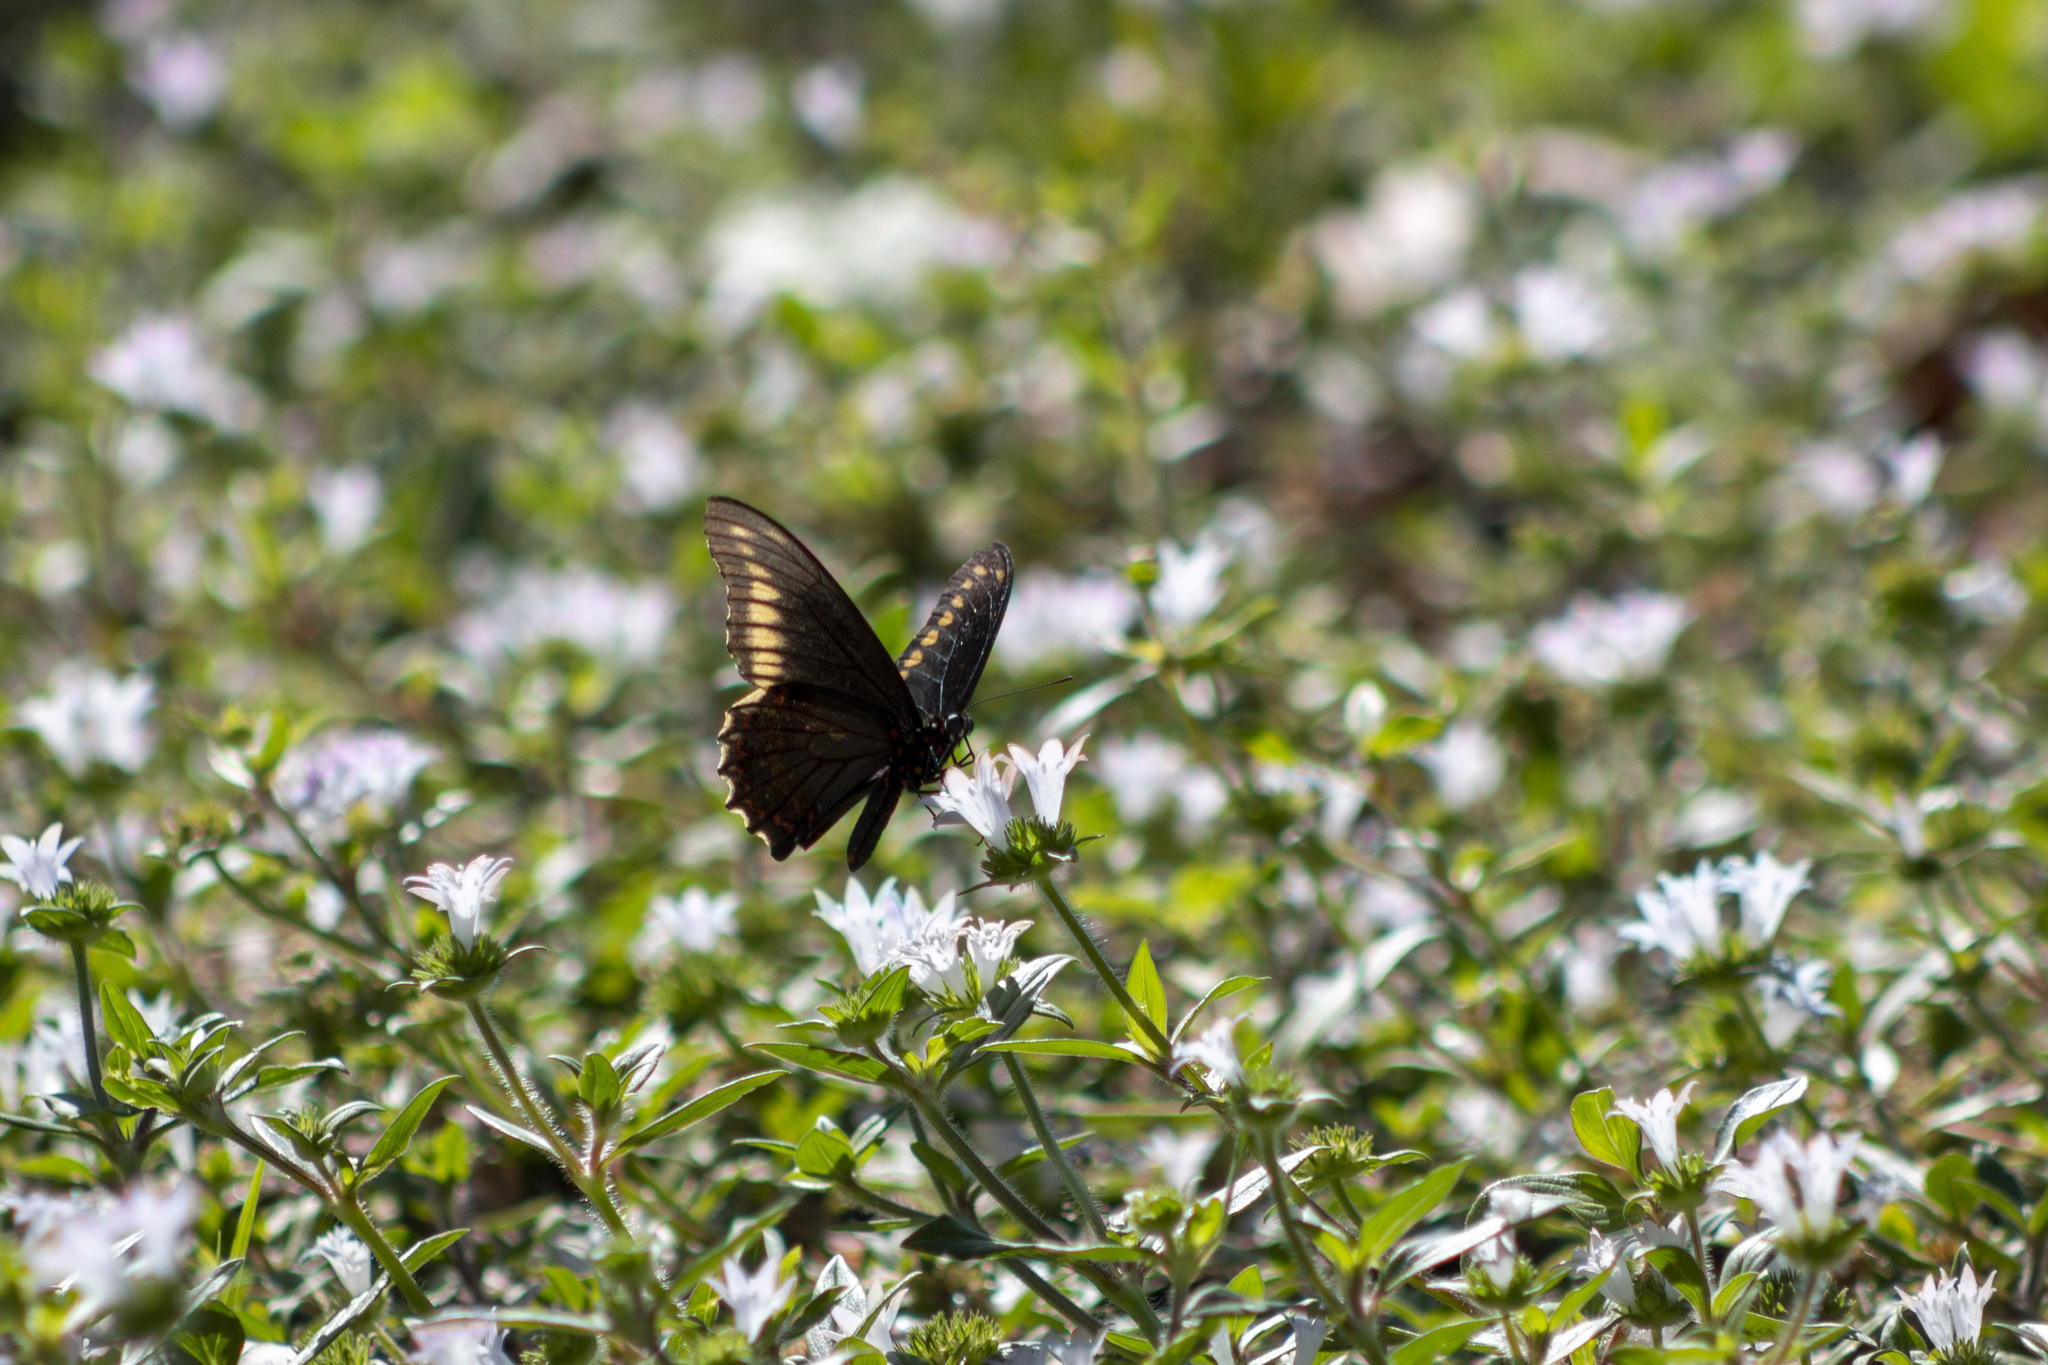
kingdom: Animalia
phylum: Arthropoda
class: Insecta
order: Lepidoptera
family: Papilionidae
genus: Battus
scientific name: Battus polydamas
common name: Polydamas swallowtail
